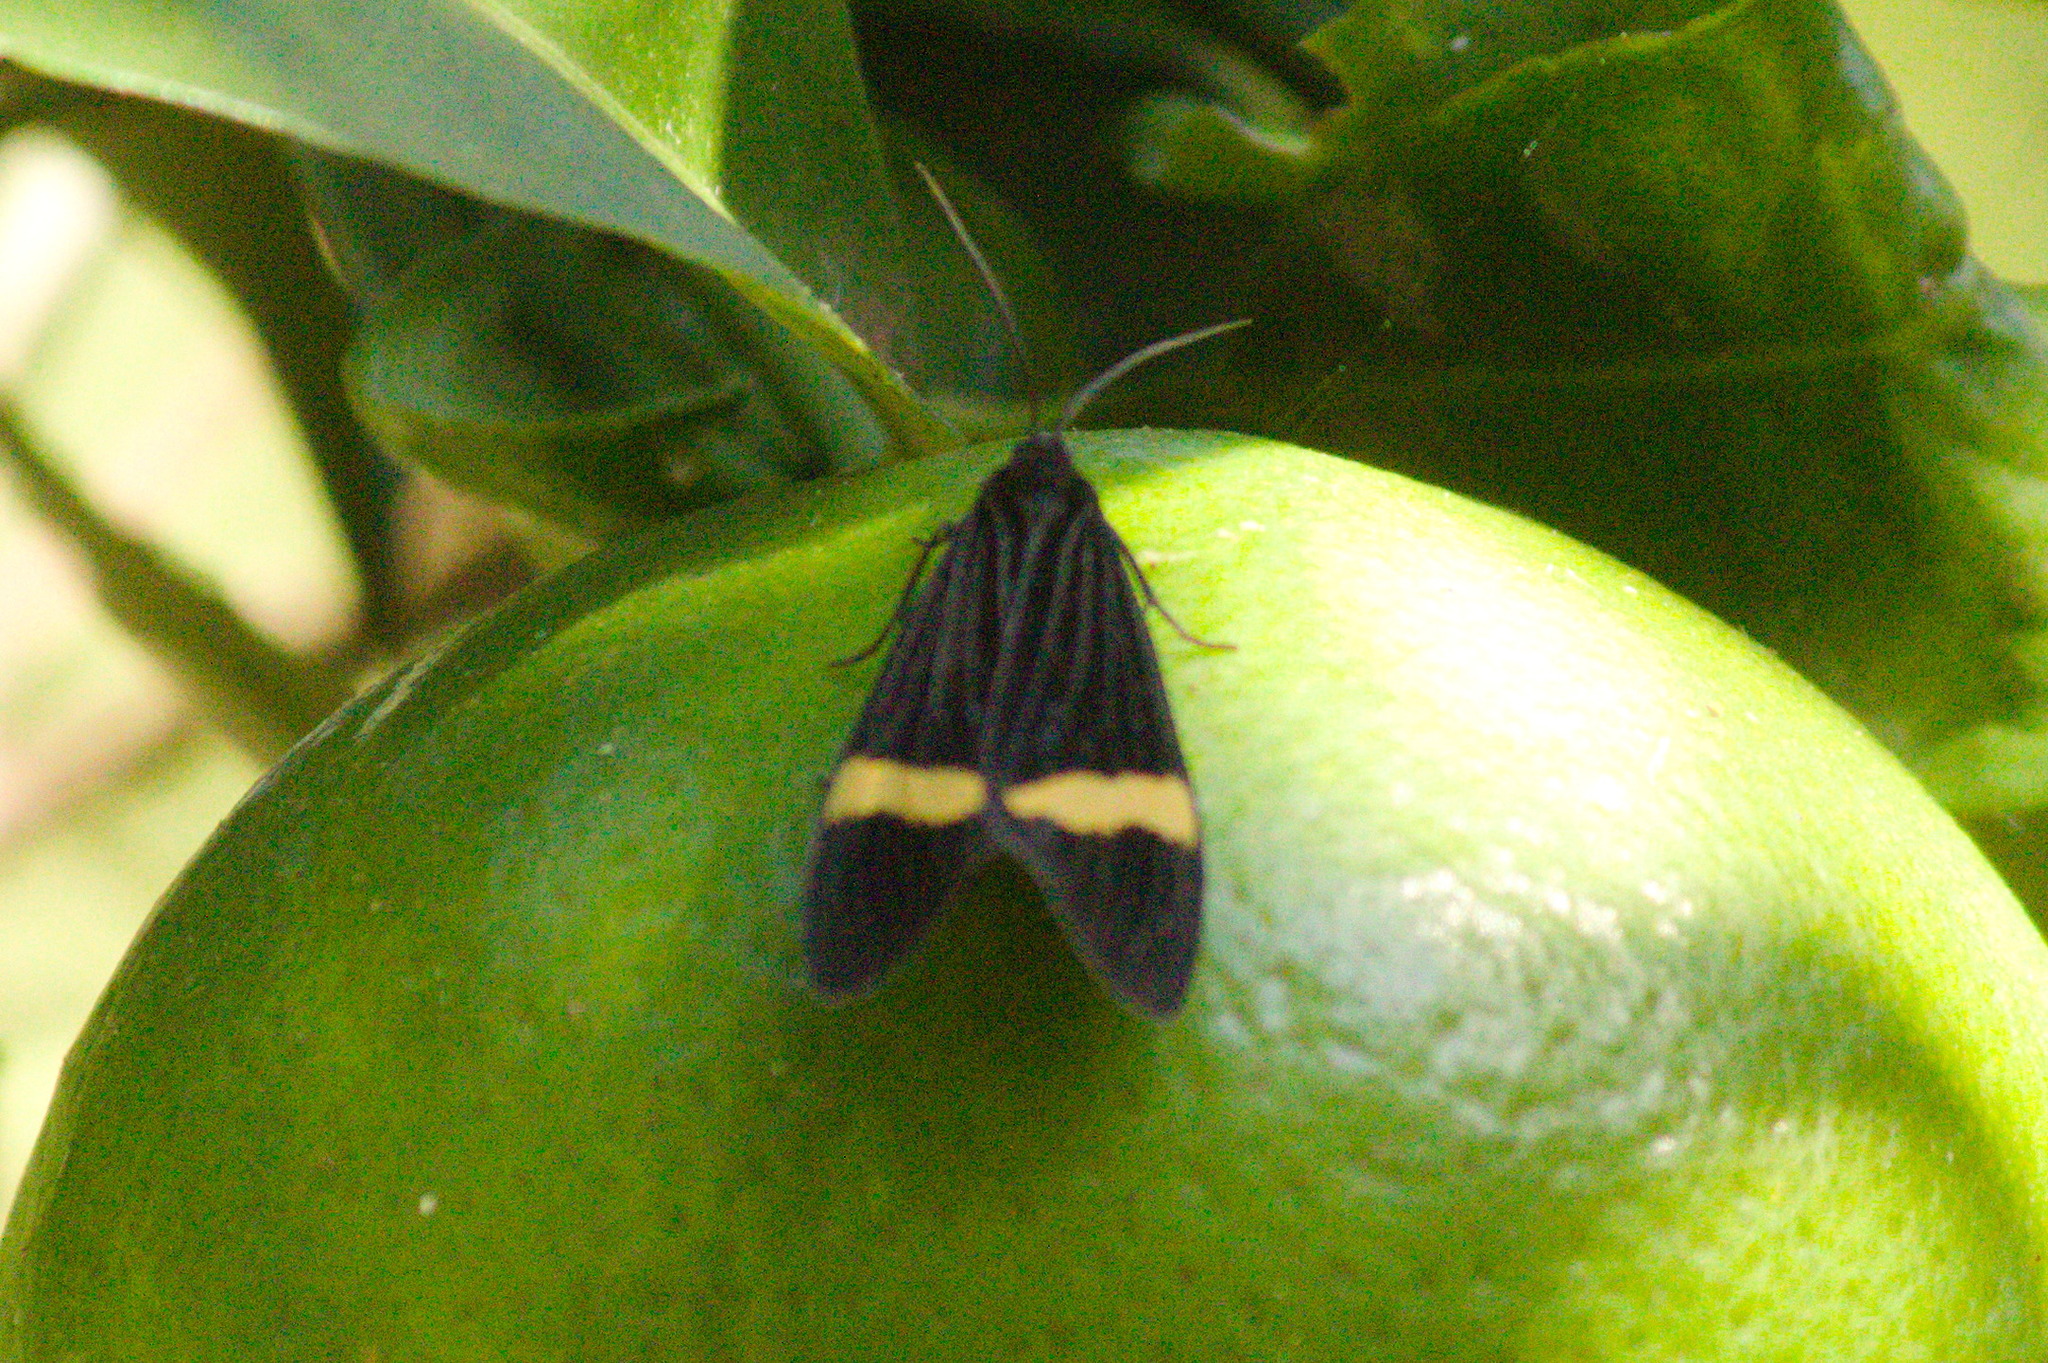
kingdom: Animalia
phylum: Arthropoda
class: Insecta
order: Lepidoptera
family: Erebidae
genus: Aclytia
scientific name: Aclytia heber
